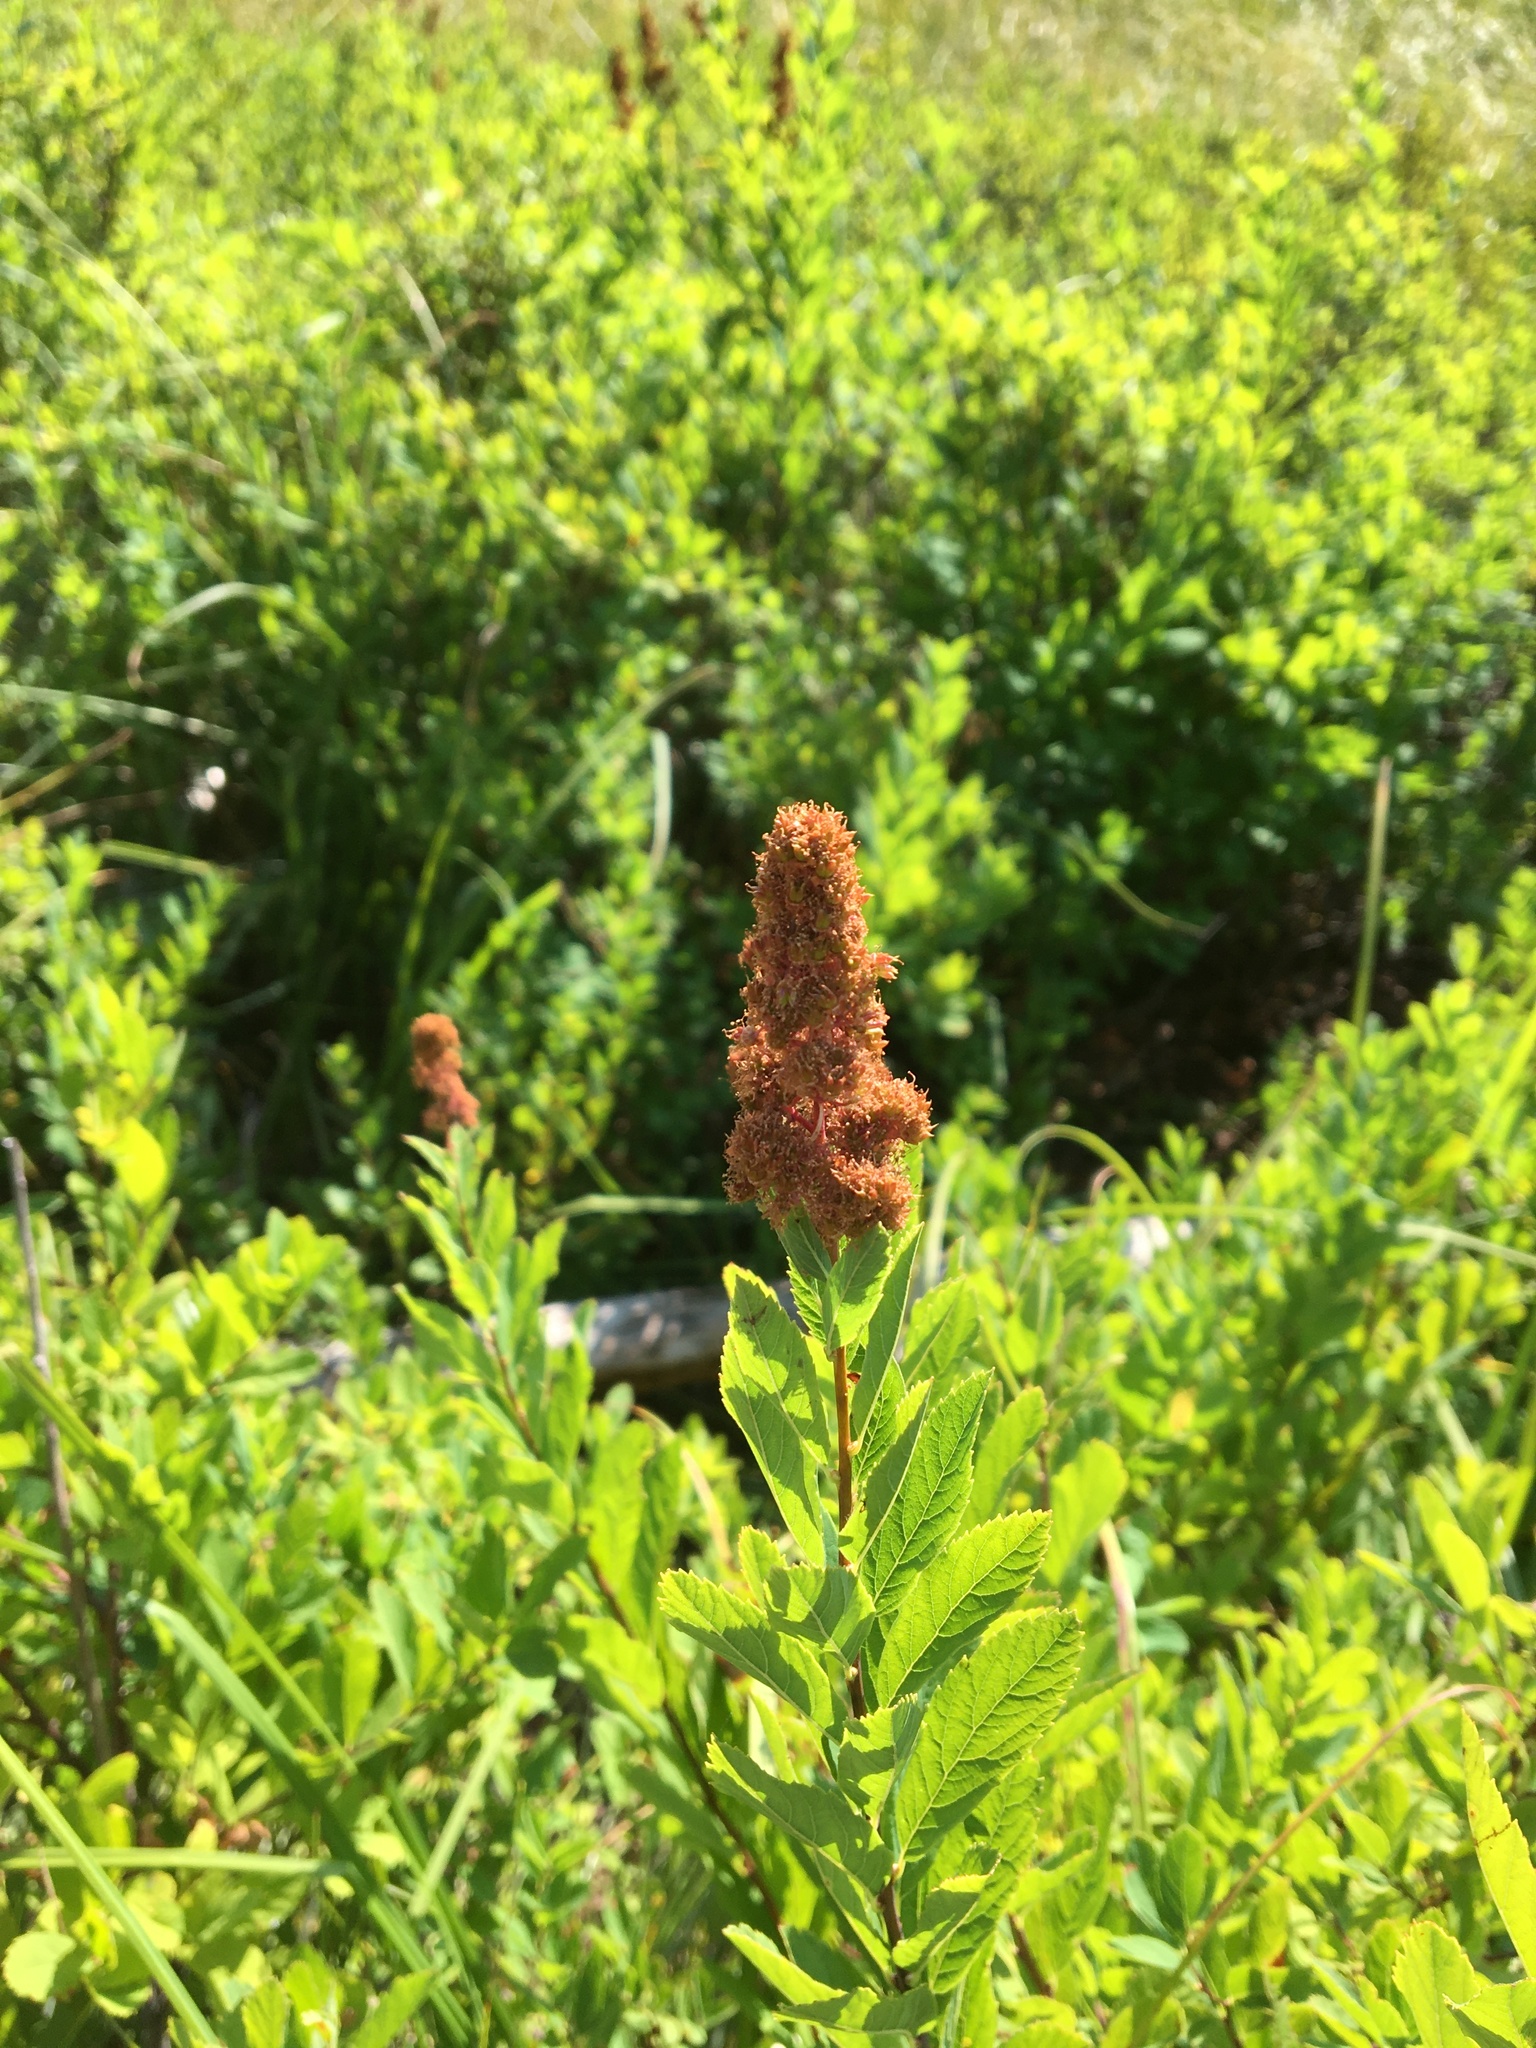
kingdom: Plantae
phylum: Tracheophyta
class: Magnoliopsida
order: Rosales
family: Rosaceae
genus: Spiraea
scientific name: Spiraea douglasii
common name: Steeplebush
